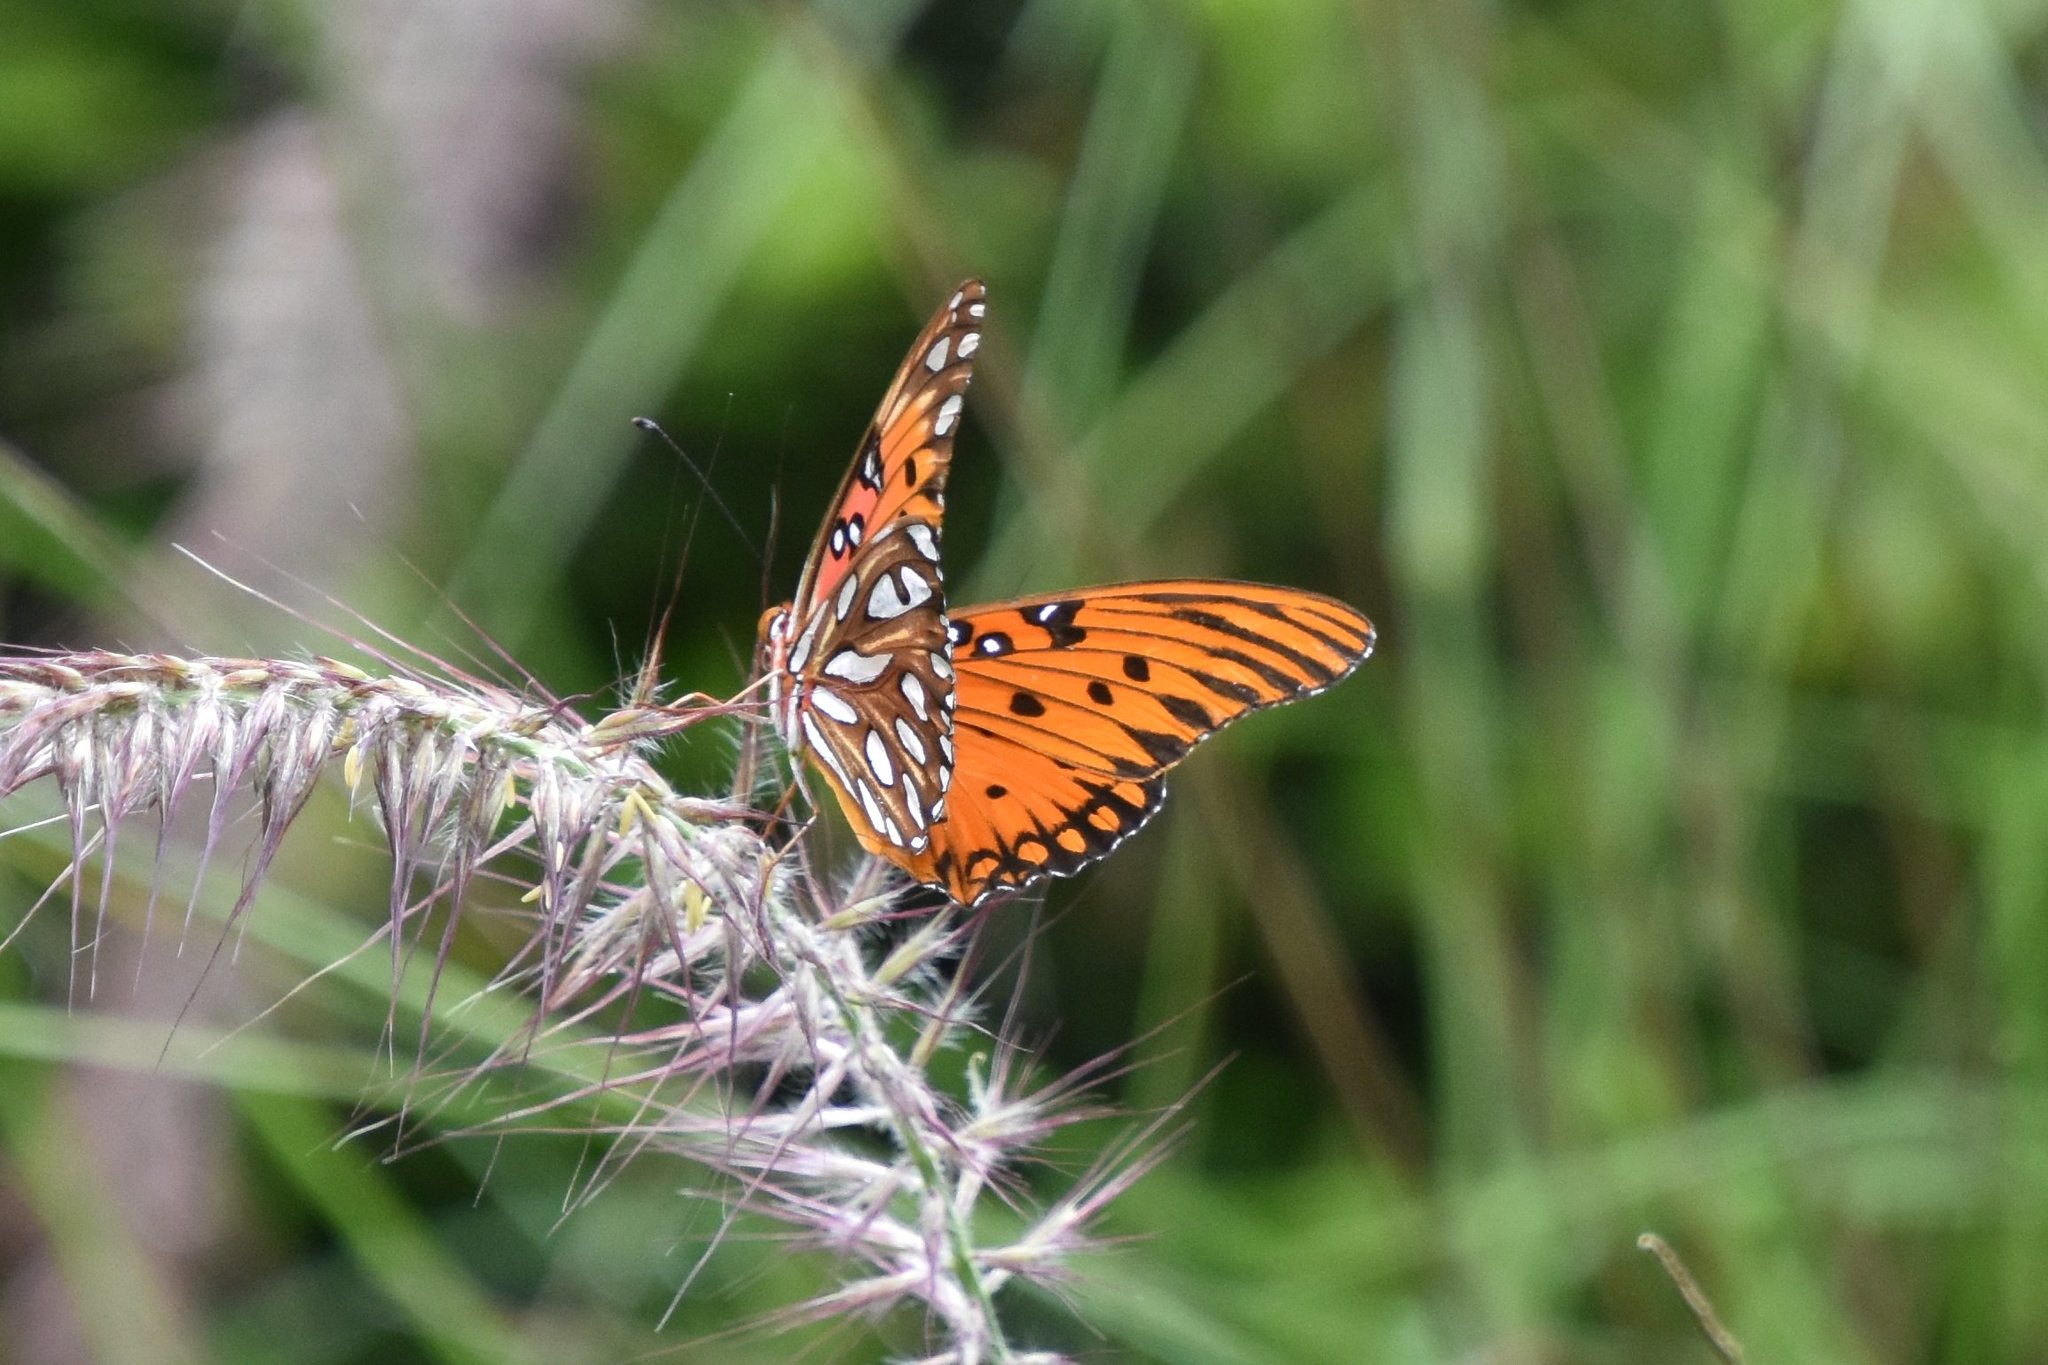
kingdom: Animalia
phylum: Arthropoda
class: Insecta
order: Lepidoptera
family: Nymphalidae
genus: Dione
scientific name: Dione vanillae
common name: Gulf fritillary
